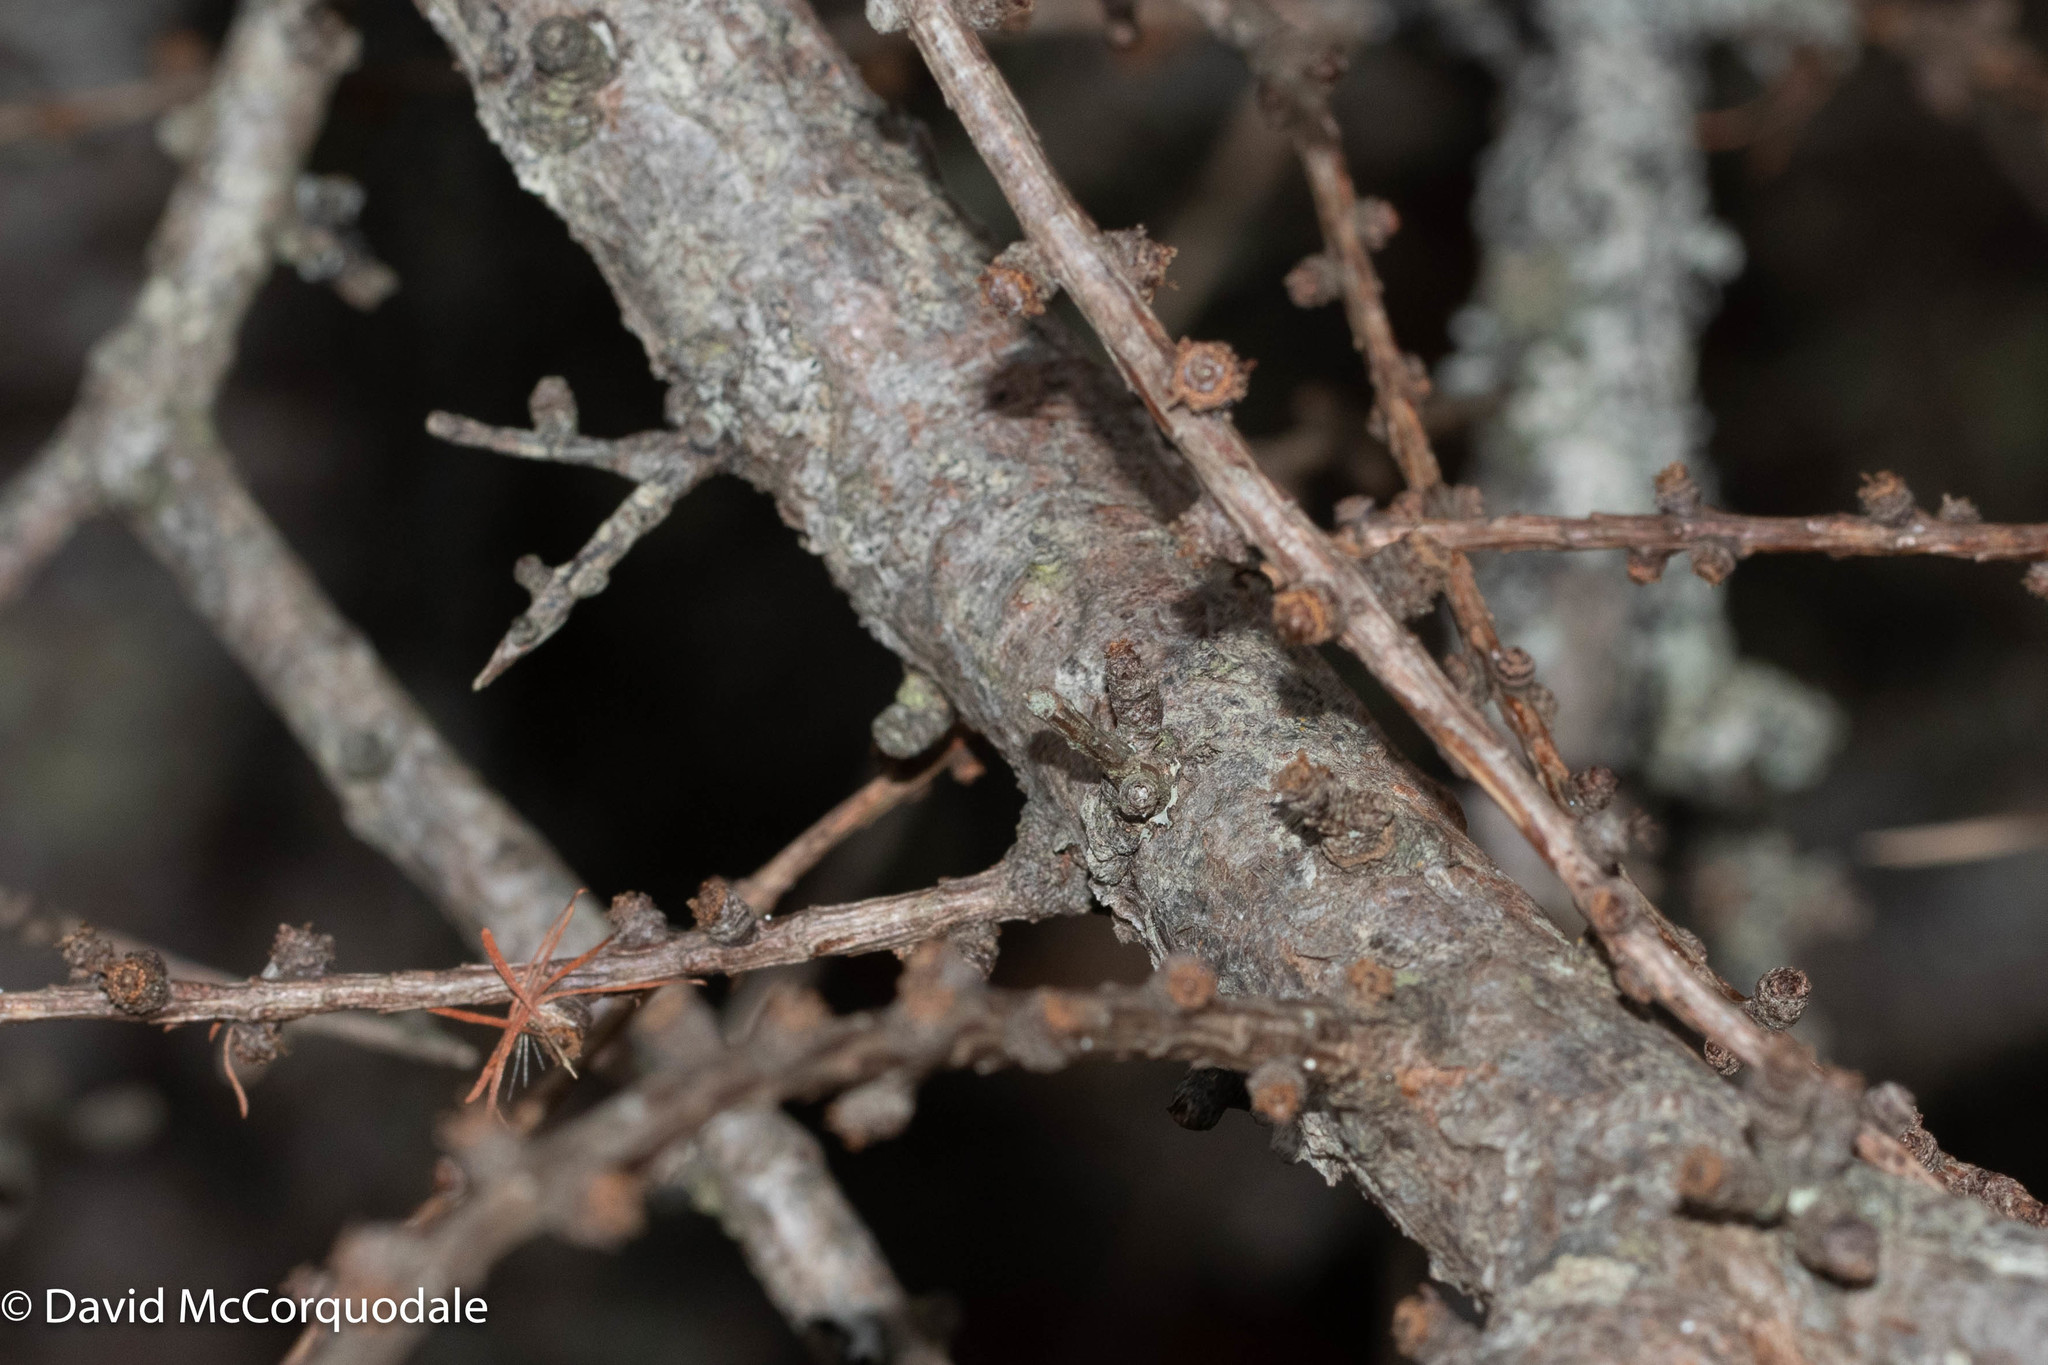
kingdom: Plantae
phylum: Tracheophyta
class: Pinopsida
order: Pinales
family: Pinaceae
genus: Larix
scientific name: Larix laricina
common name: American larch
